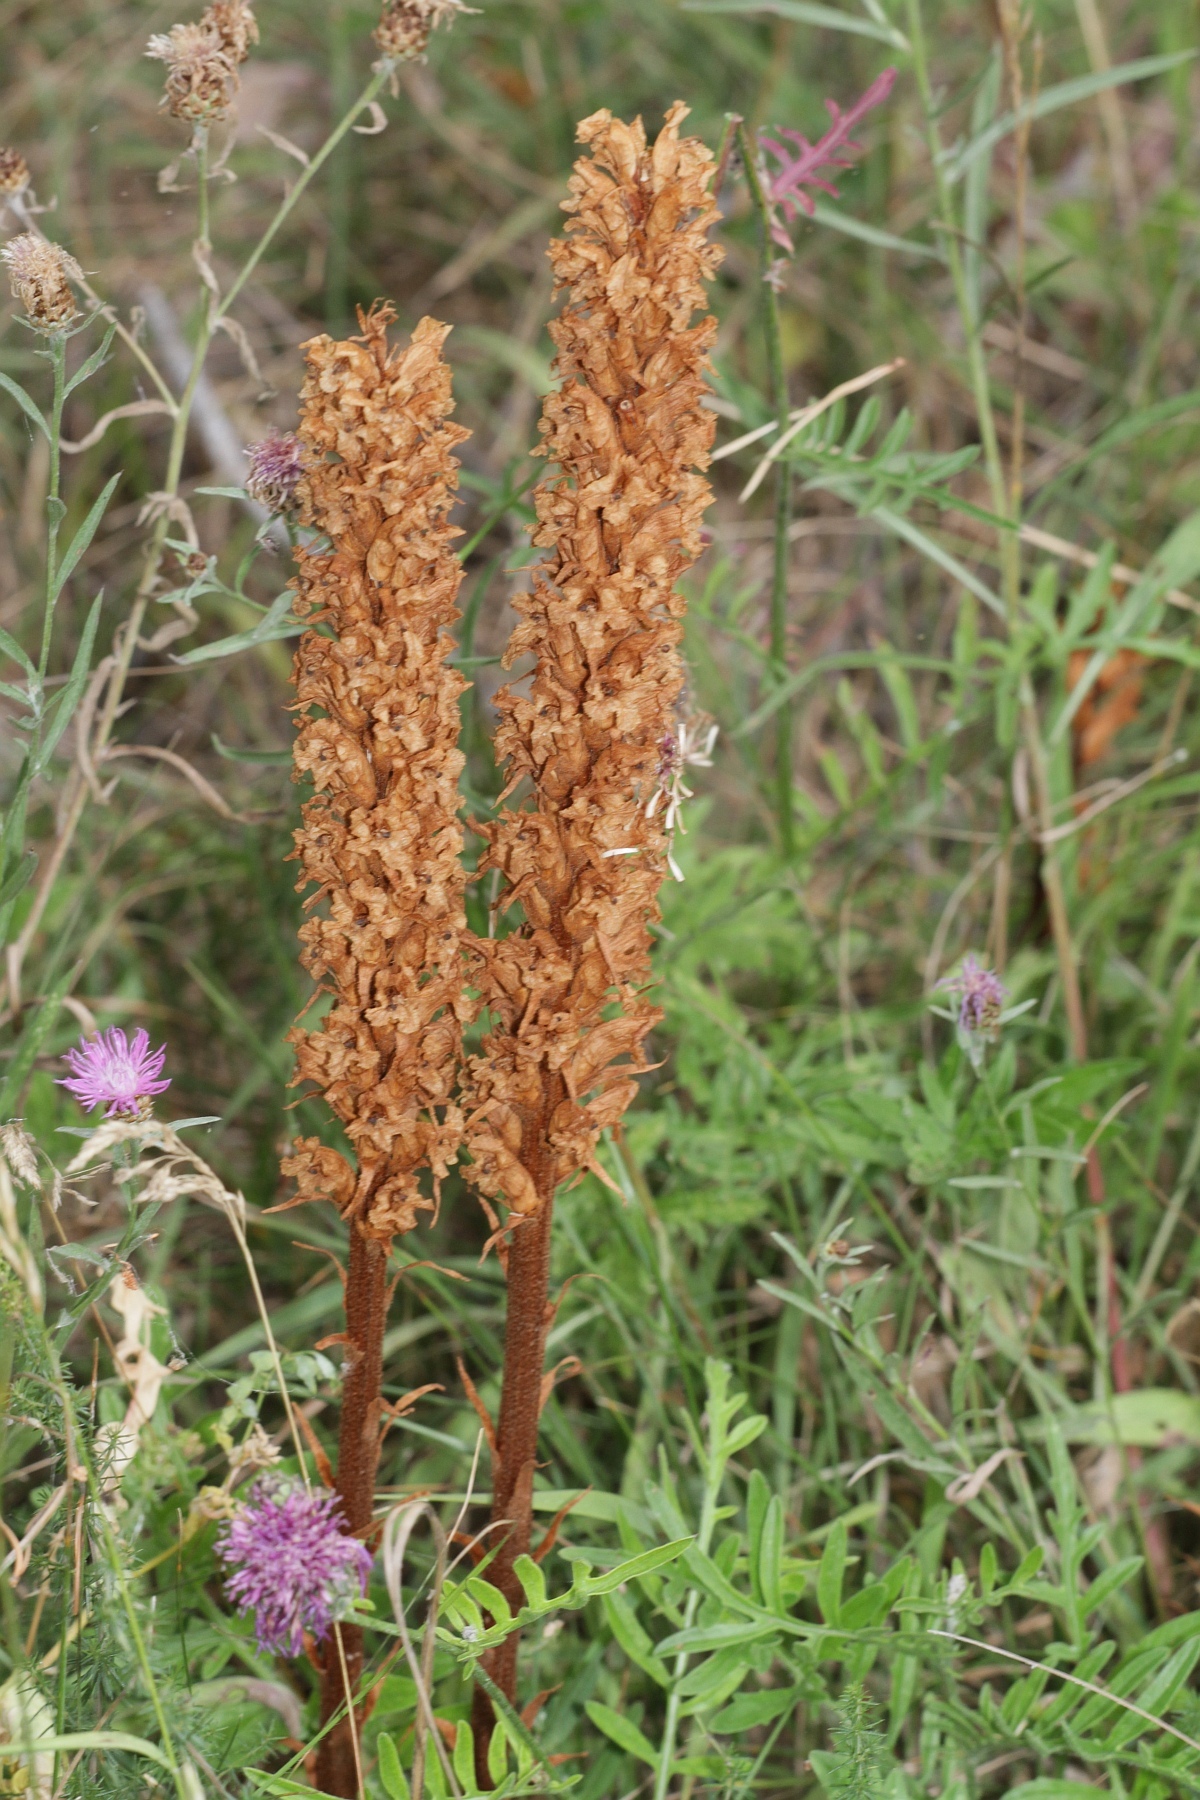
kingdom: Plantae
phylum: Tracheophyta
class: Magnoliopsida
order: Lamiales
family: Orobanchaceae
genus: Orobanche
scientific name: Orobanche elatior
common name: Knapweed broomrape
